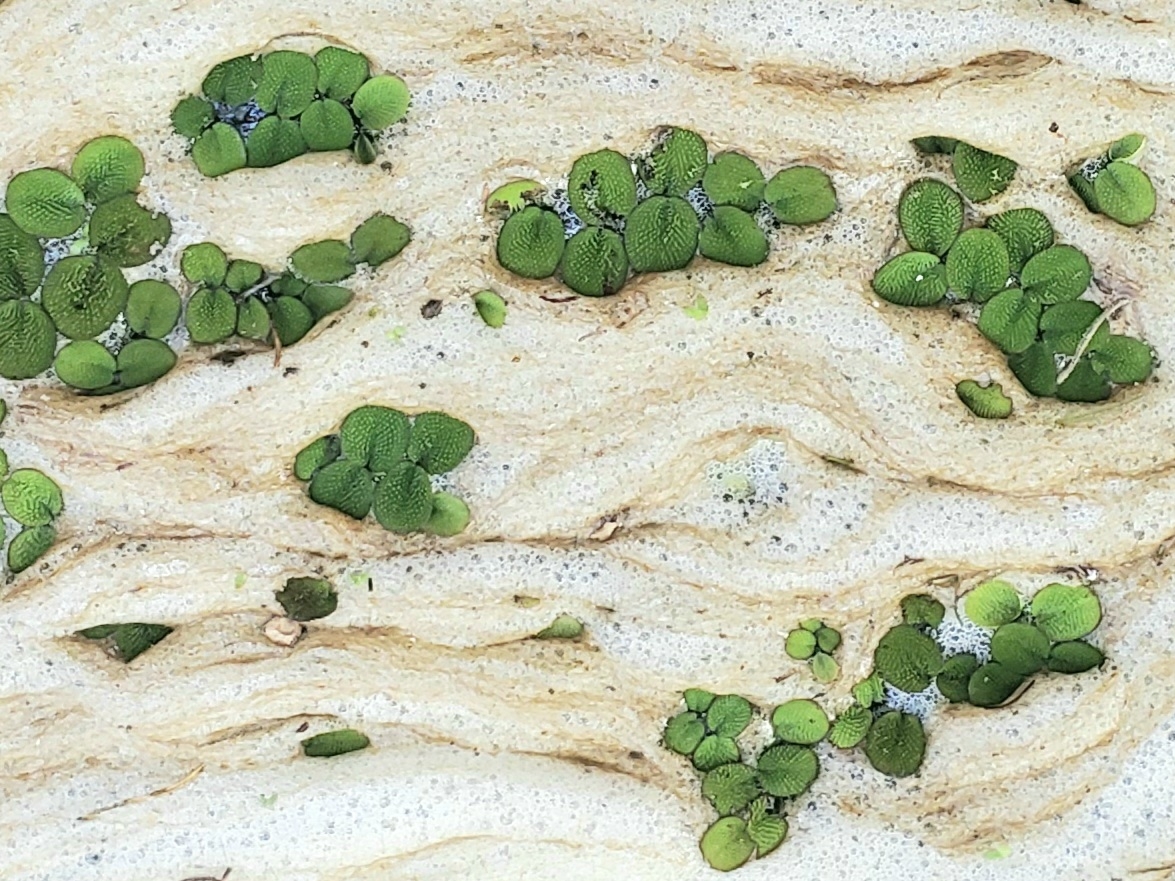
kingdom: Plantae
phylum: Tracheophyta
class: Polypodiopsida
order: Salviniales
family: Salviniaceae
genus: Salvinia
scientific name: Salvinia minima
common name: Water spangles
